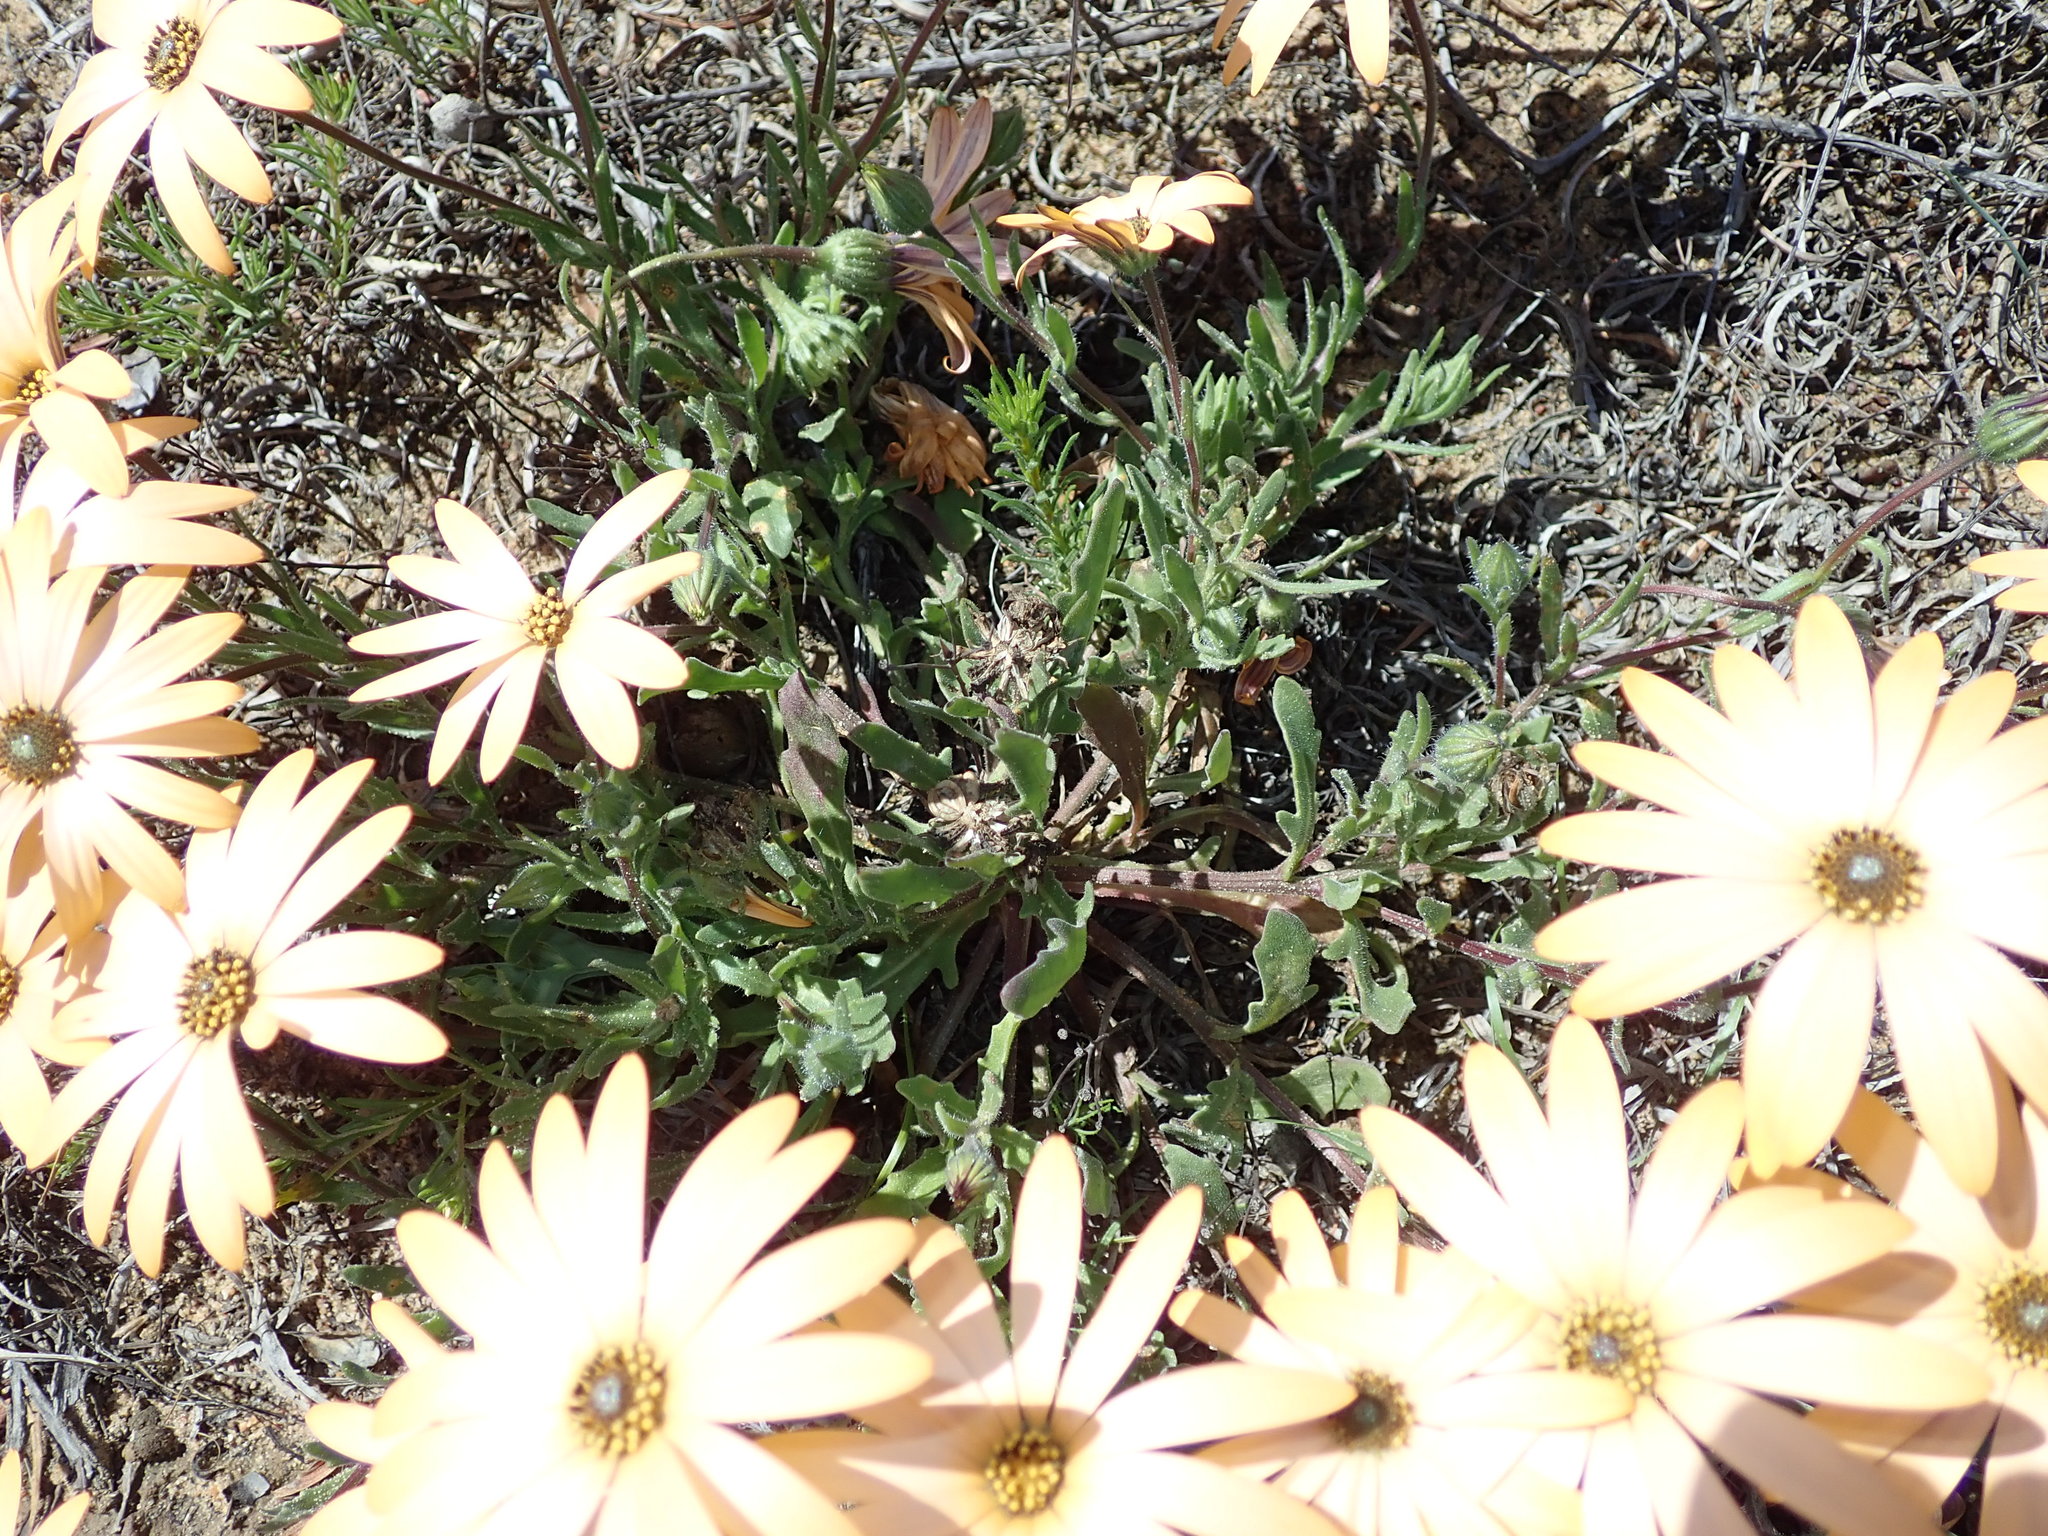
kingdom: Plantae
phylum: Tracheophyta
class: Magnoliopsida
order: Asterales
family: Asteraceae
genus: Dimorphotheca
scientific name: Dimorphotheca sinuata
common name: Glandular cape marigold
